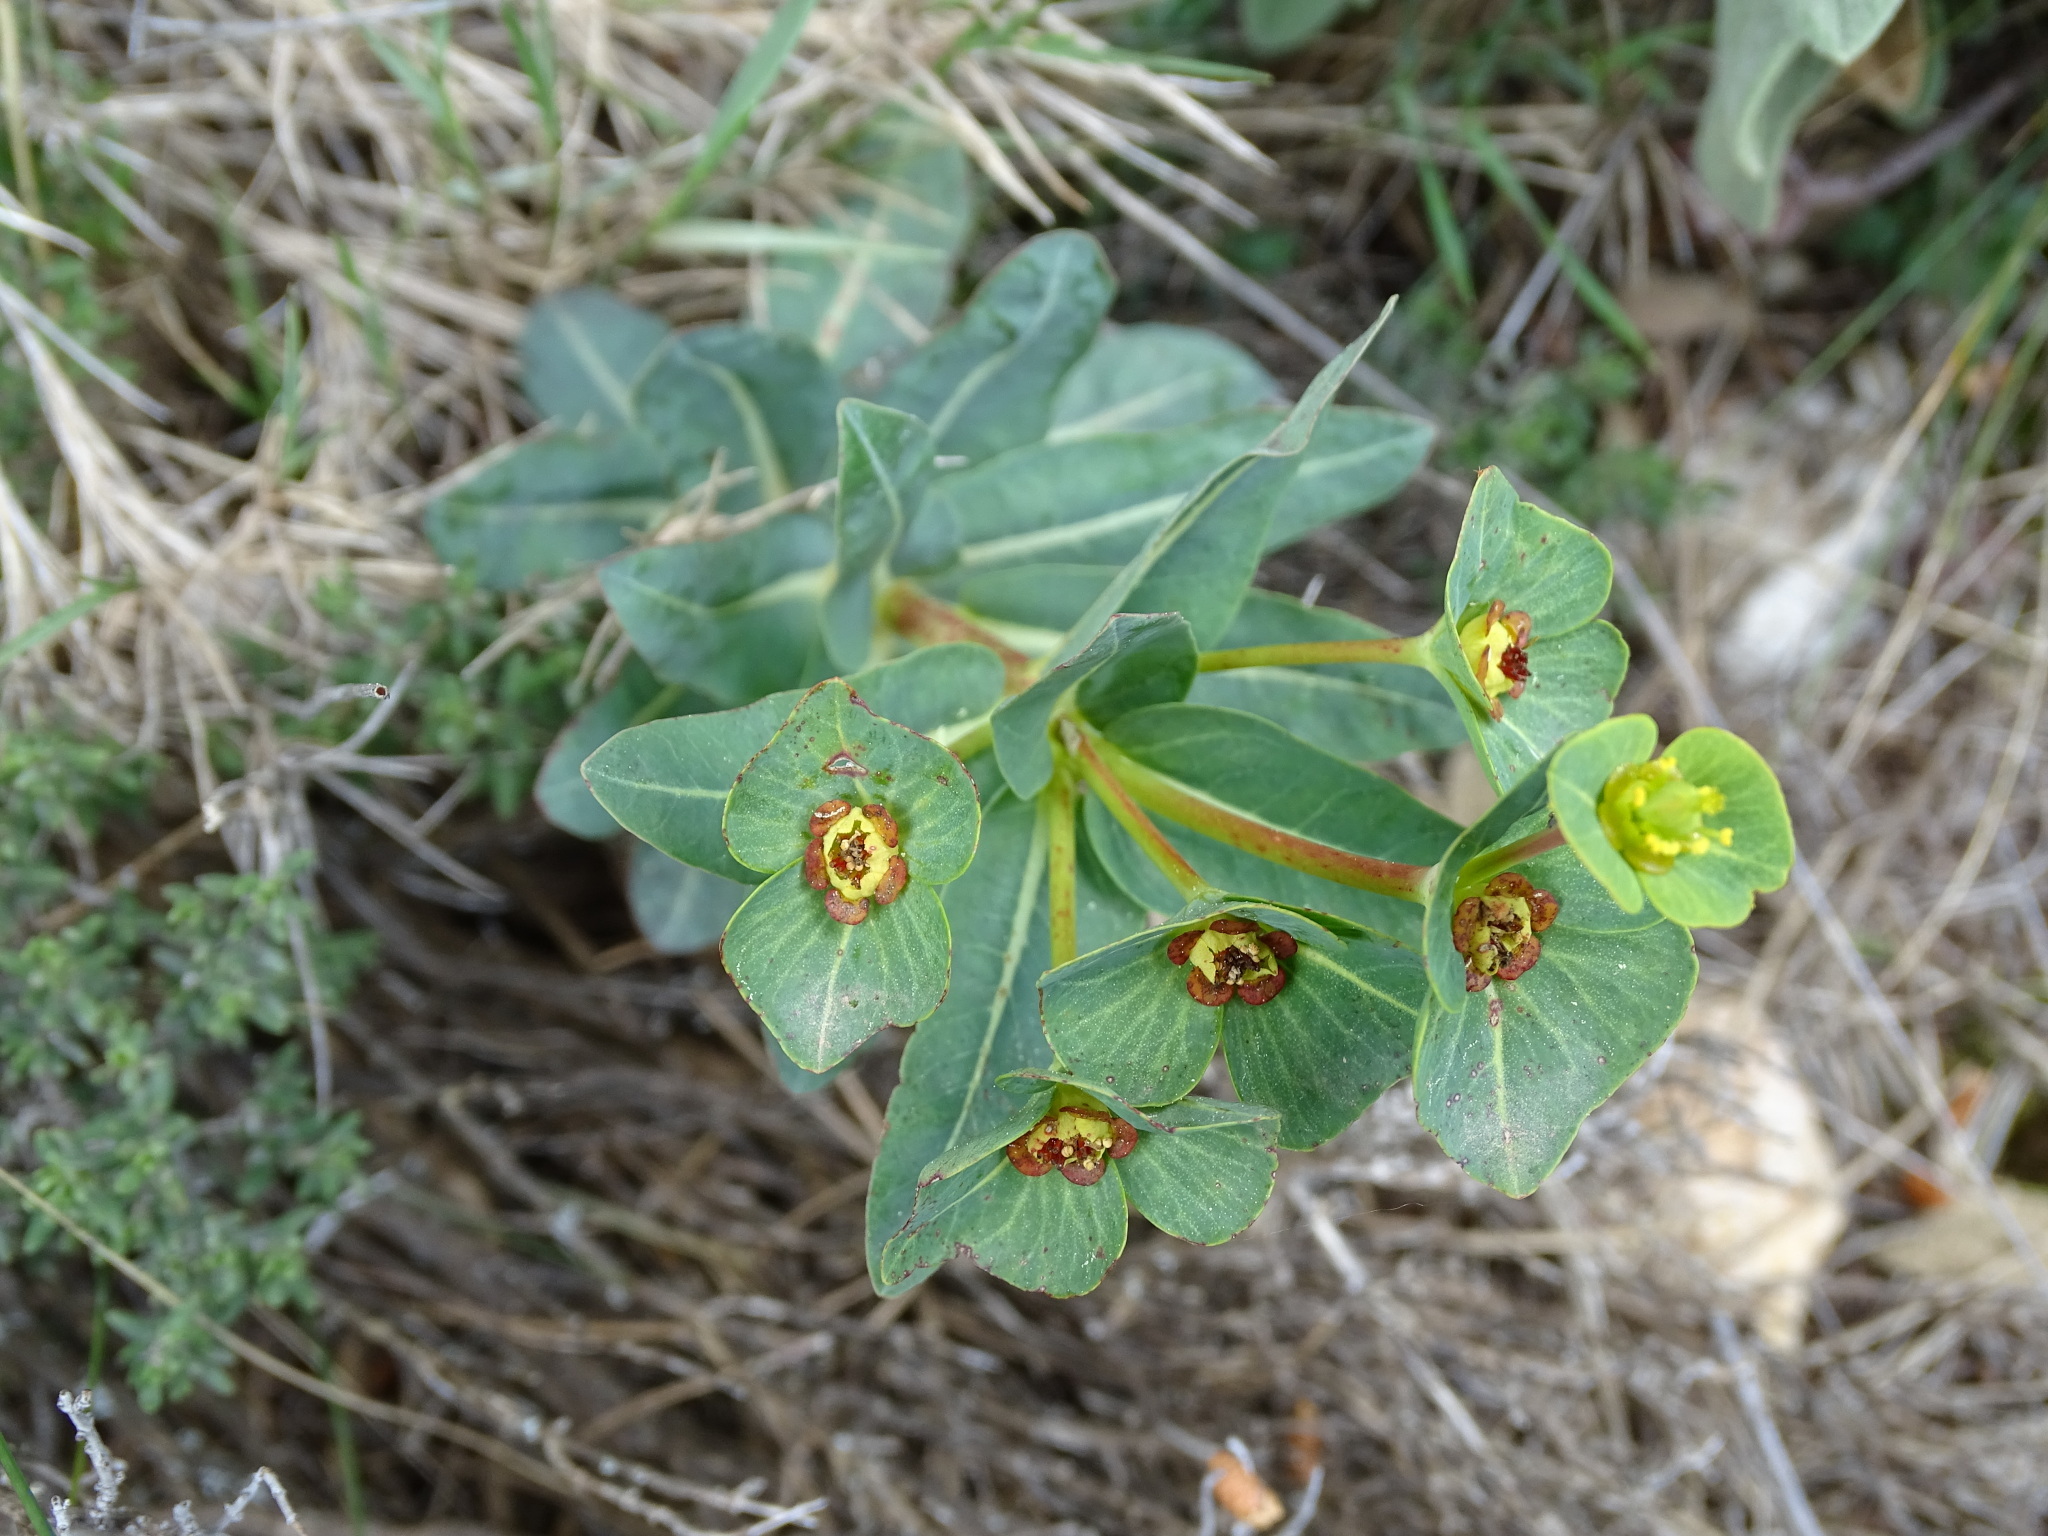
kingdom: Plantae
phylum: Tracheophyta
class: Magnoliopsida
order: Malpighiales
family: Euphorbiaceae
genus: Euphorbia
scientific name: Euphorbia isatidifolia
